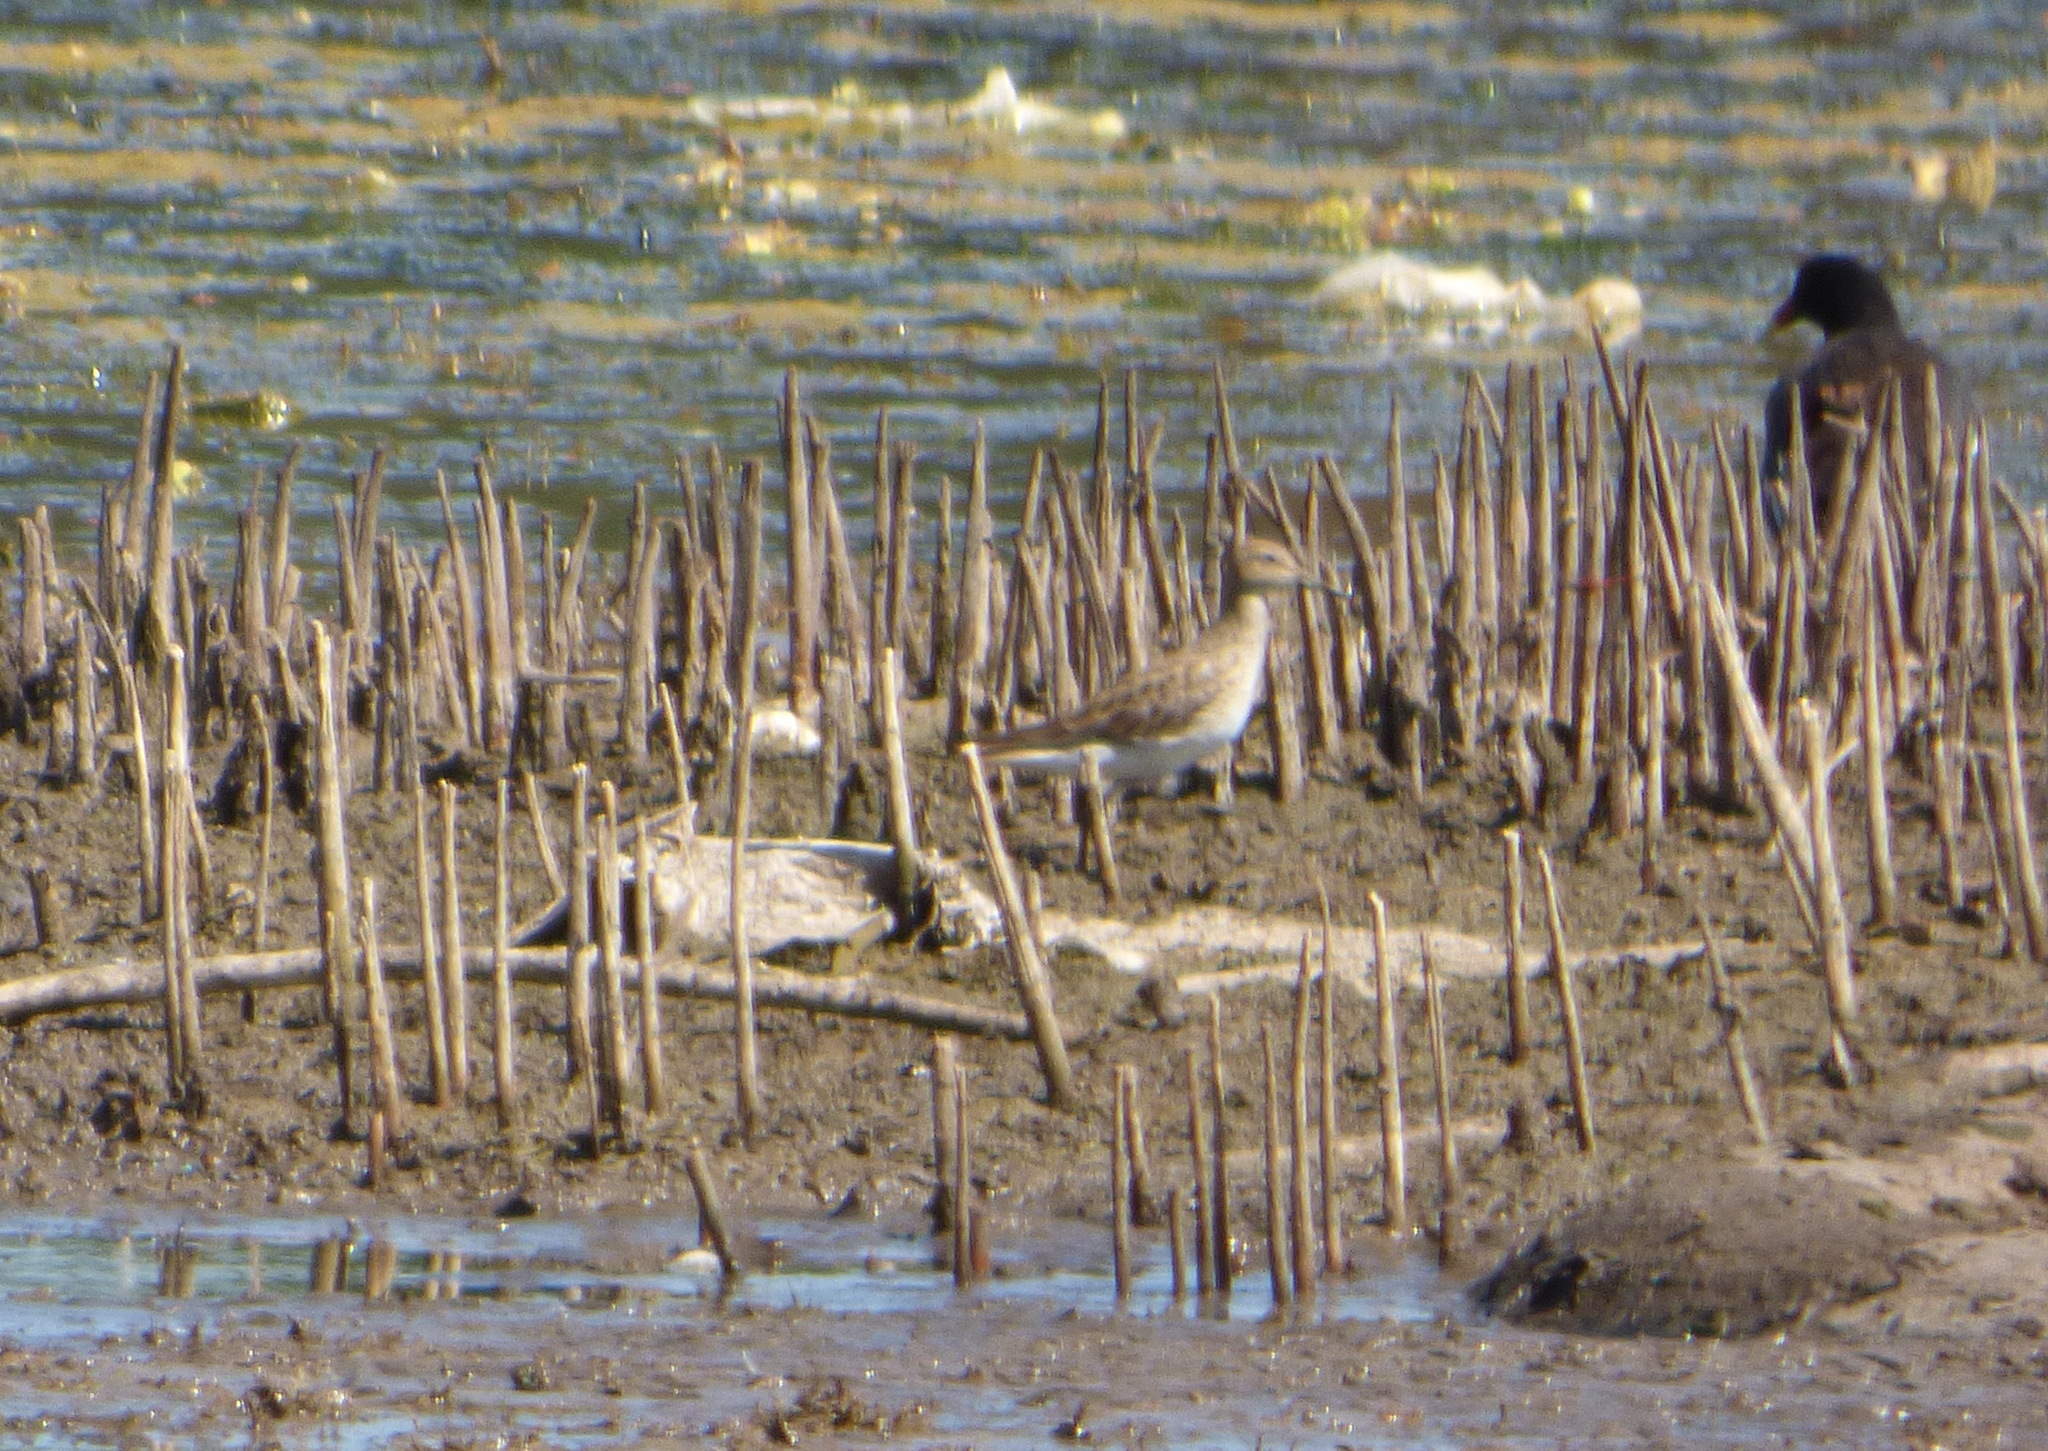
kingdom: Animalia
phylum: Chordata
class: Aves
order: Charadriiformes
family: Scolopacidae
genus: Calidris
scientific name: Calidris melanotos
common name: Pectoral sandpiper
